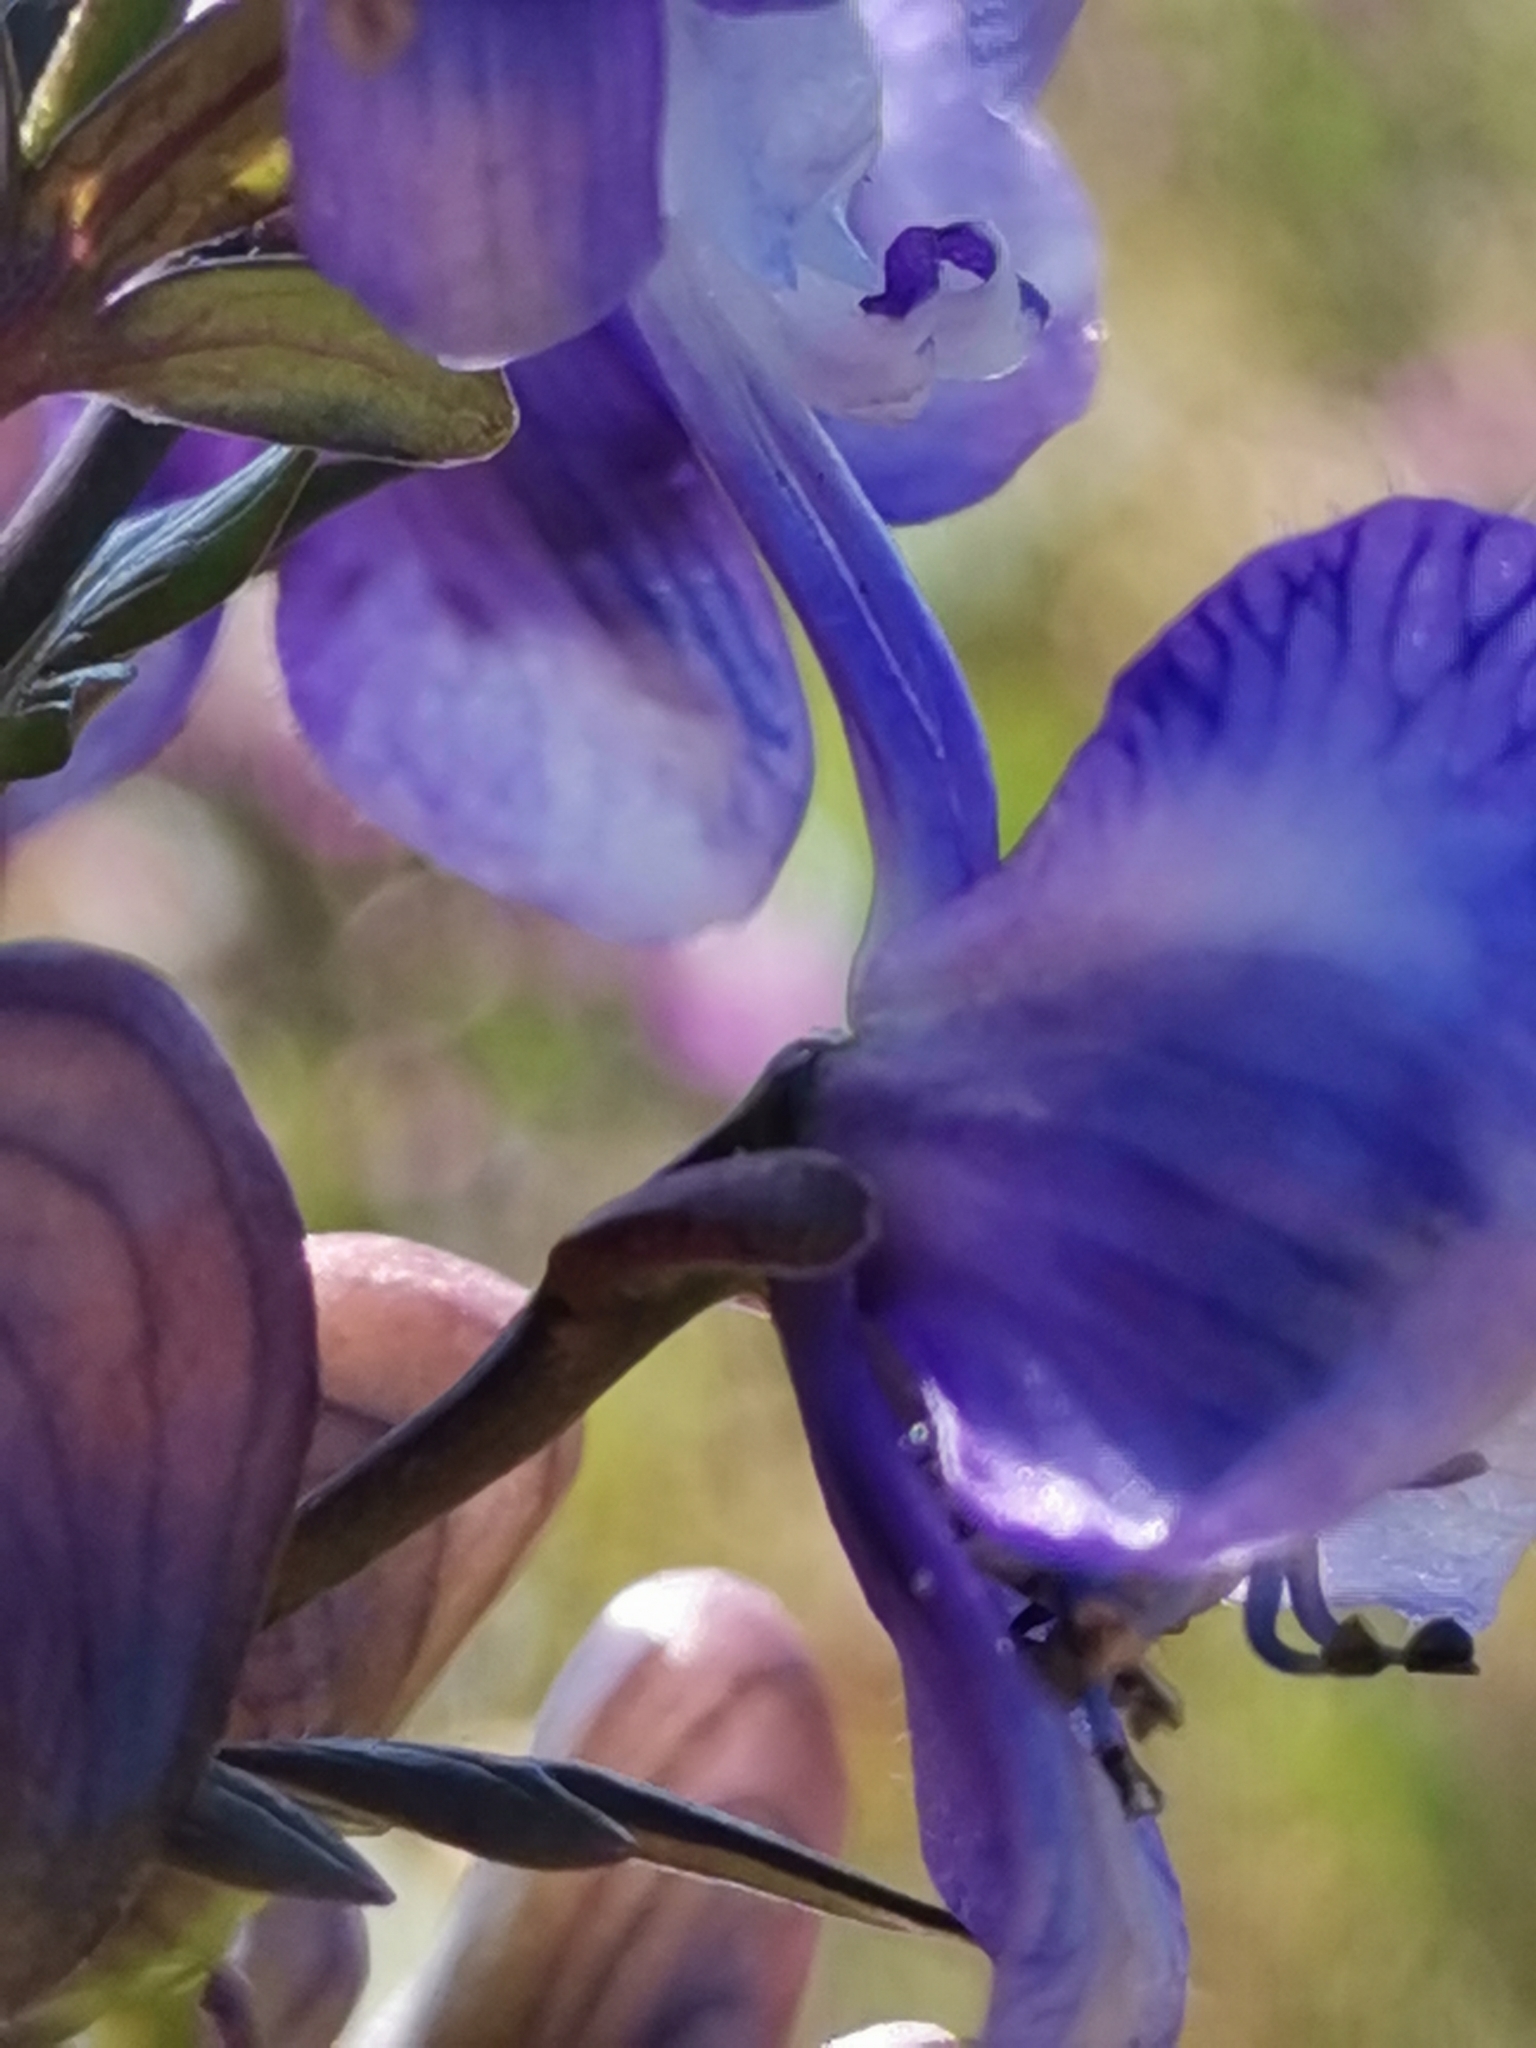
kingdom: Plantae
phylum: Tracheophyta
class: Magnoliopsida
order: Ranunculales
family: Ranunculaceae
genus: Aconitum
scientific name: Aconitum variegatum
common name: Manchurian monkshood
